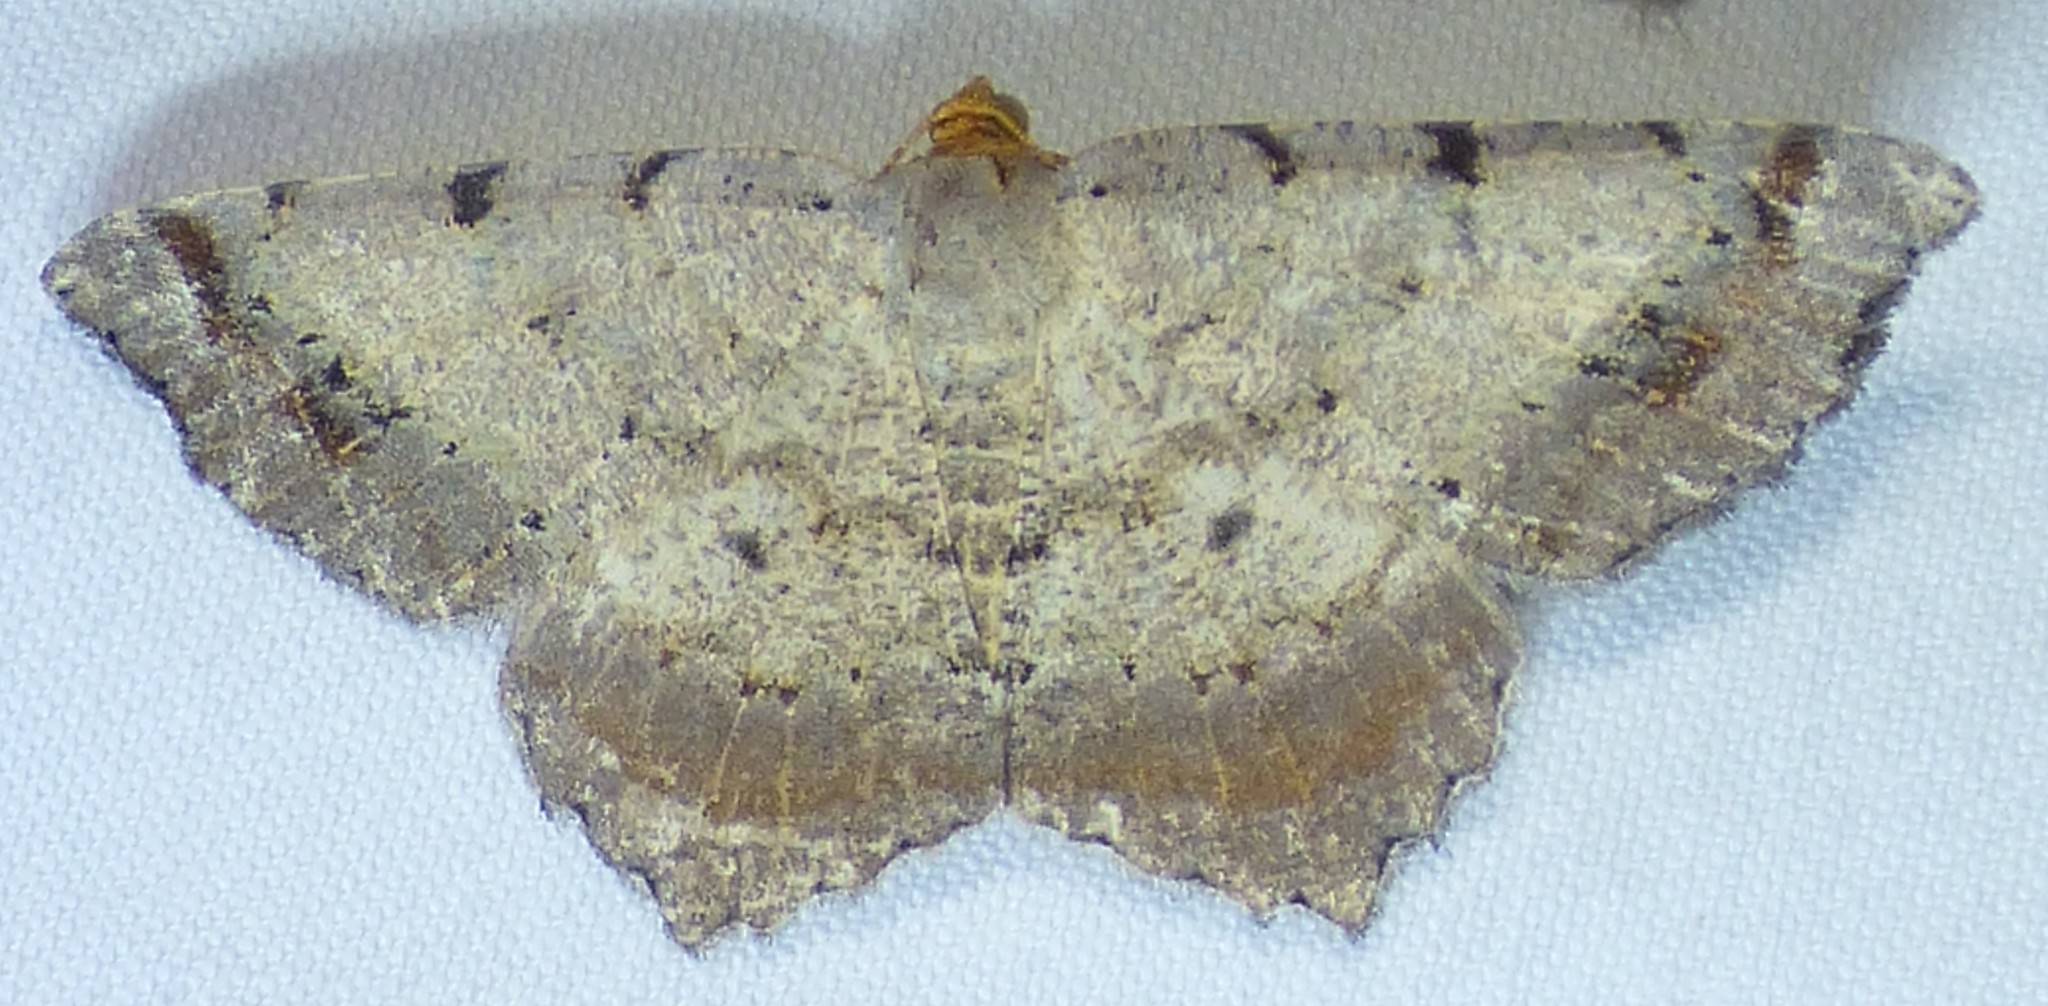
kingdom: Animalia
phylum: Arthropoda
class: Insecta
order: Lepidoptera
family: Geometridae
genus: Macaria
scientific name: Macaria bicolorata
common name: Dingy angle
